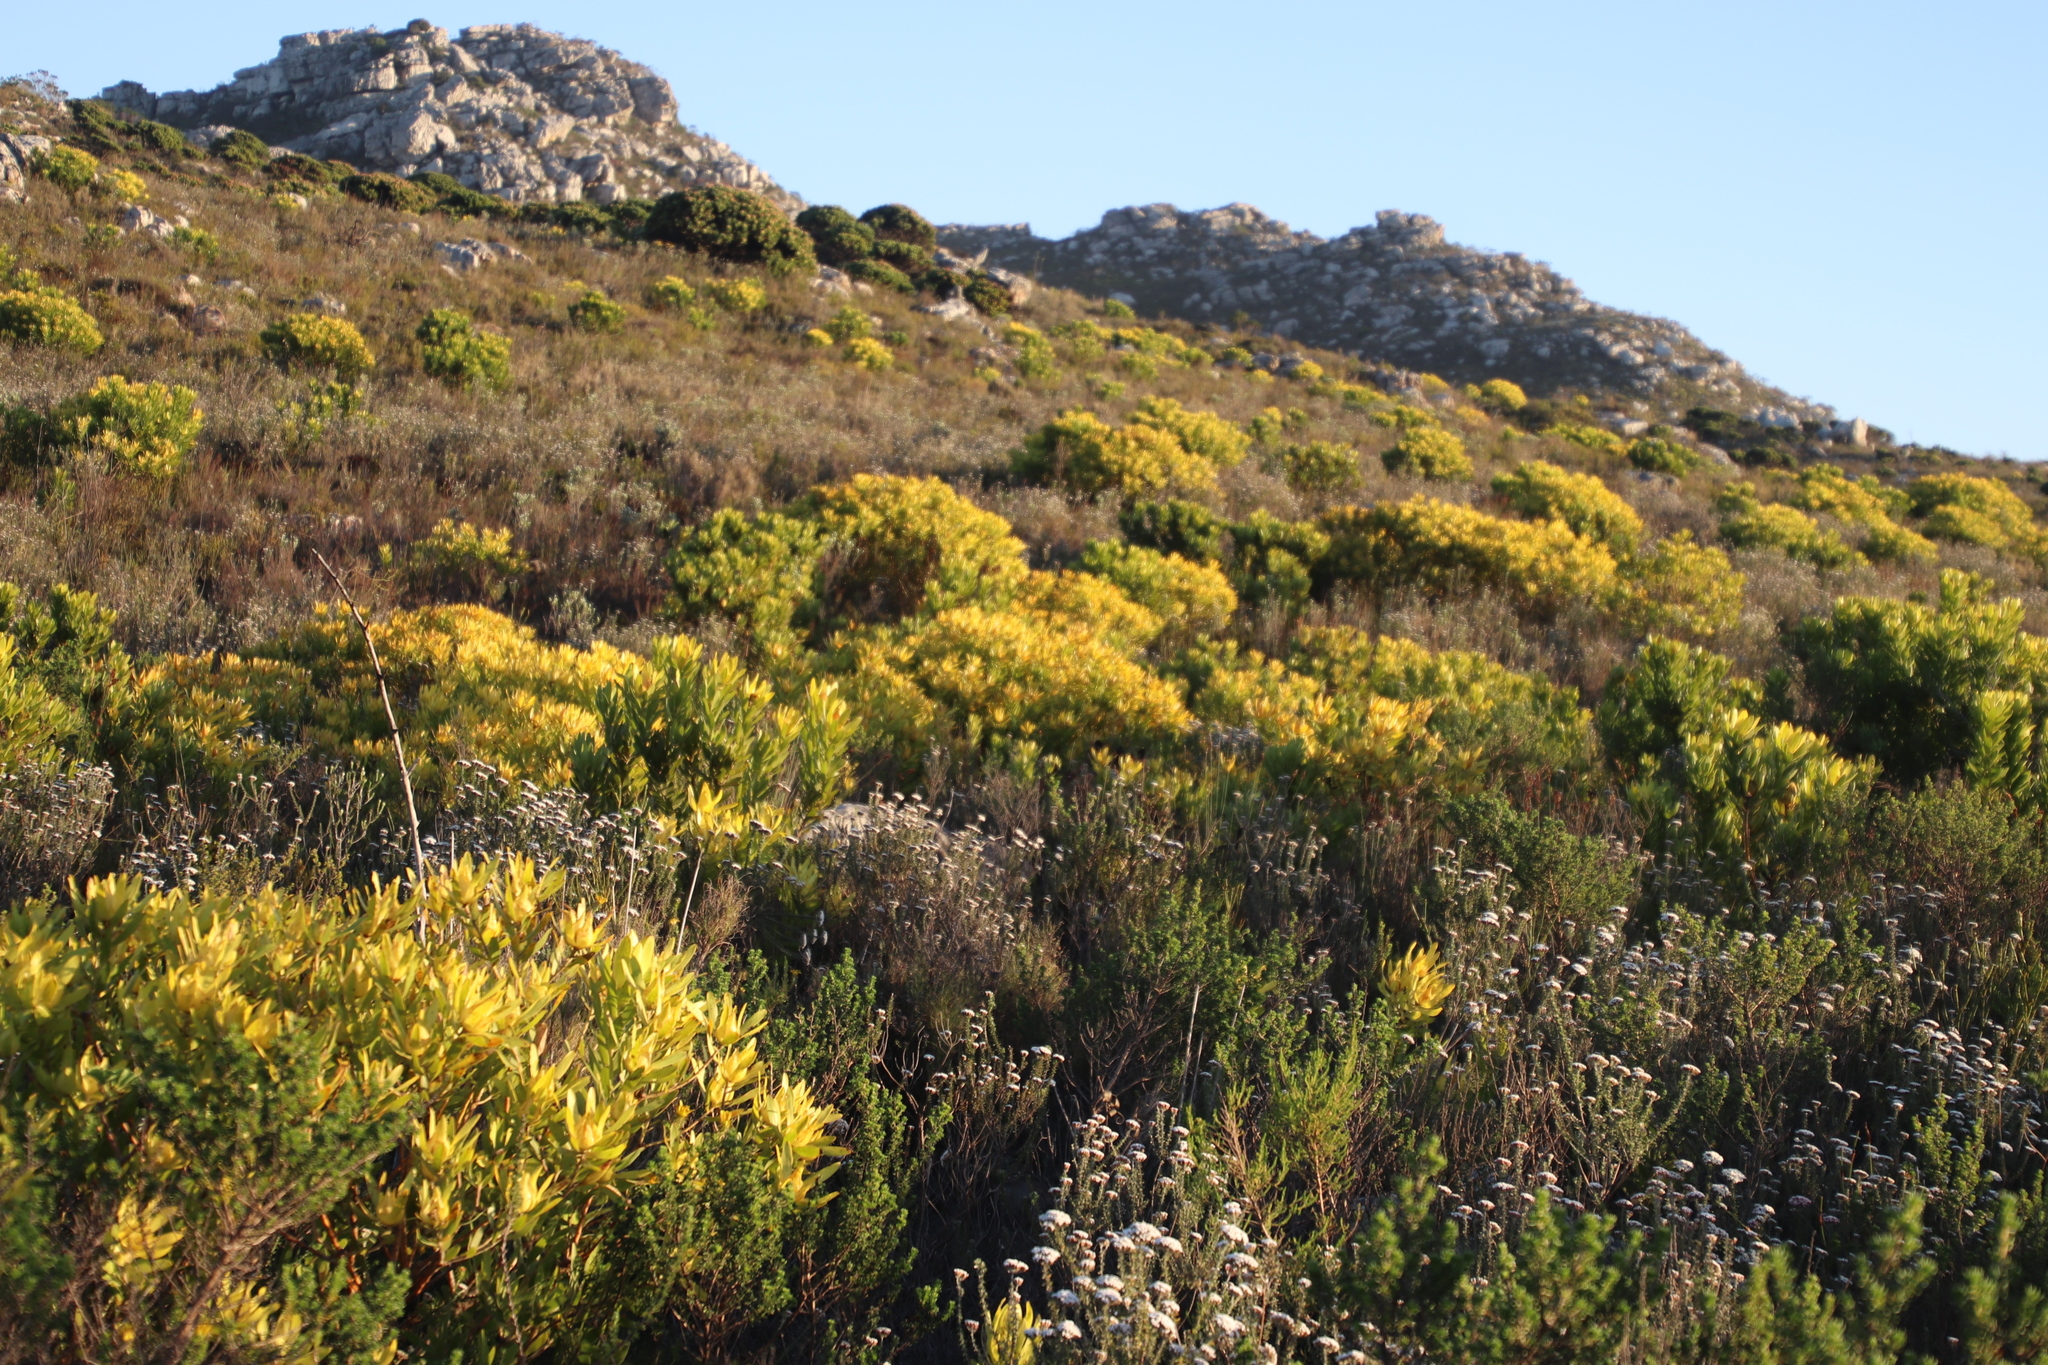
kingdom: Plantae
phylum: Tracheophyta
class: Magnoliopsida
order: Proteales
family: Proteaceae
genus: Leucadendron
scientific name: Leucadendron laureolum
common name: Golden sunshinebush
